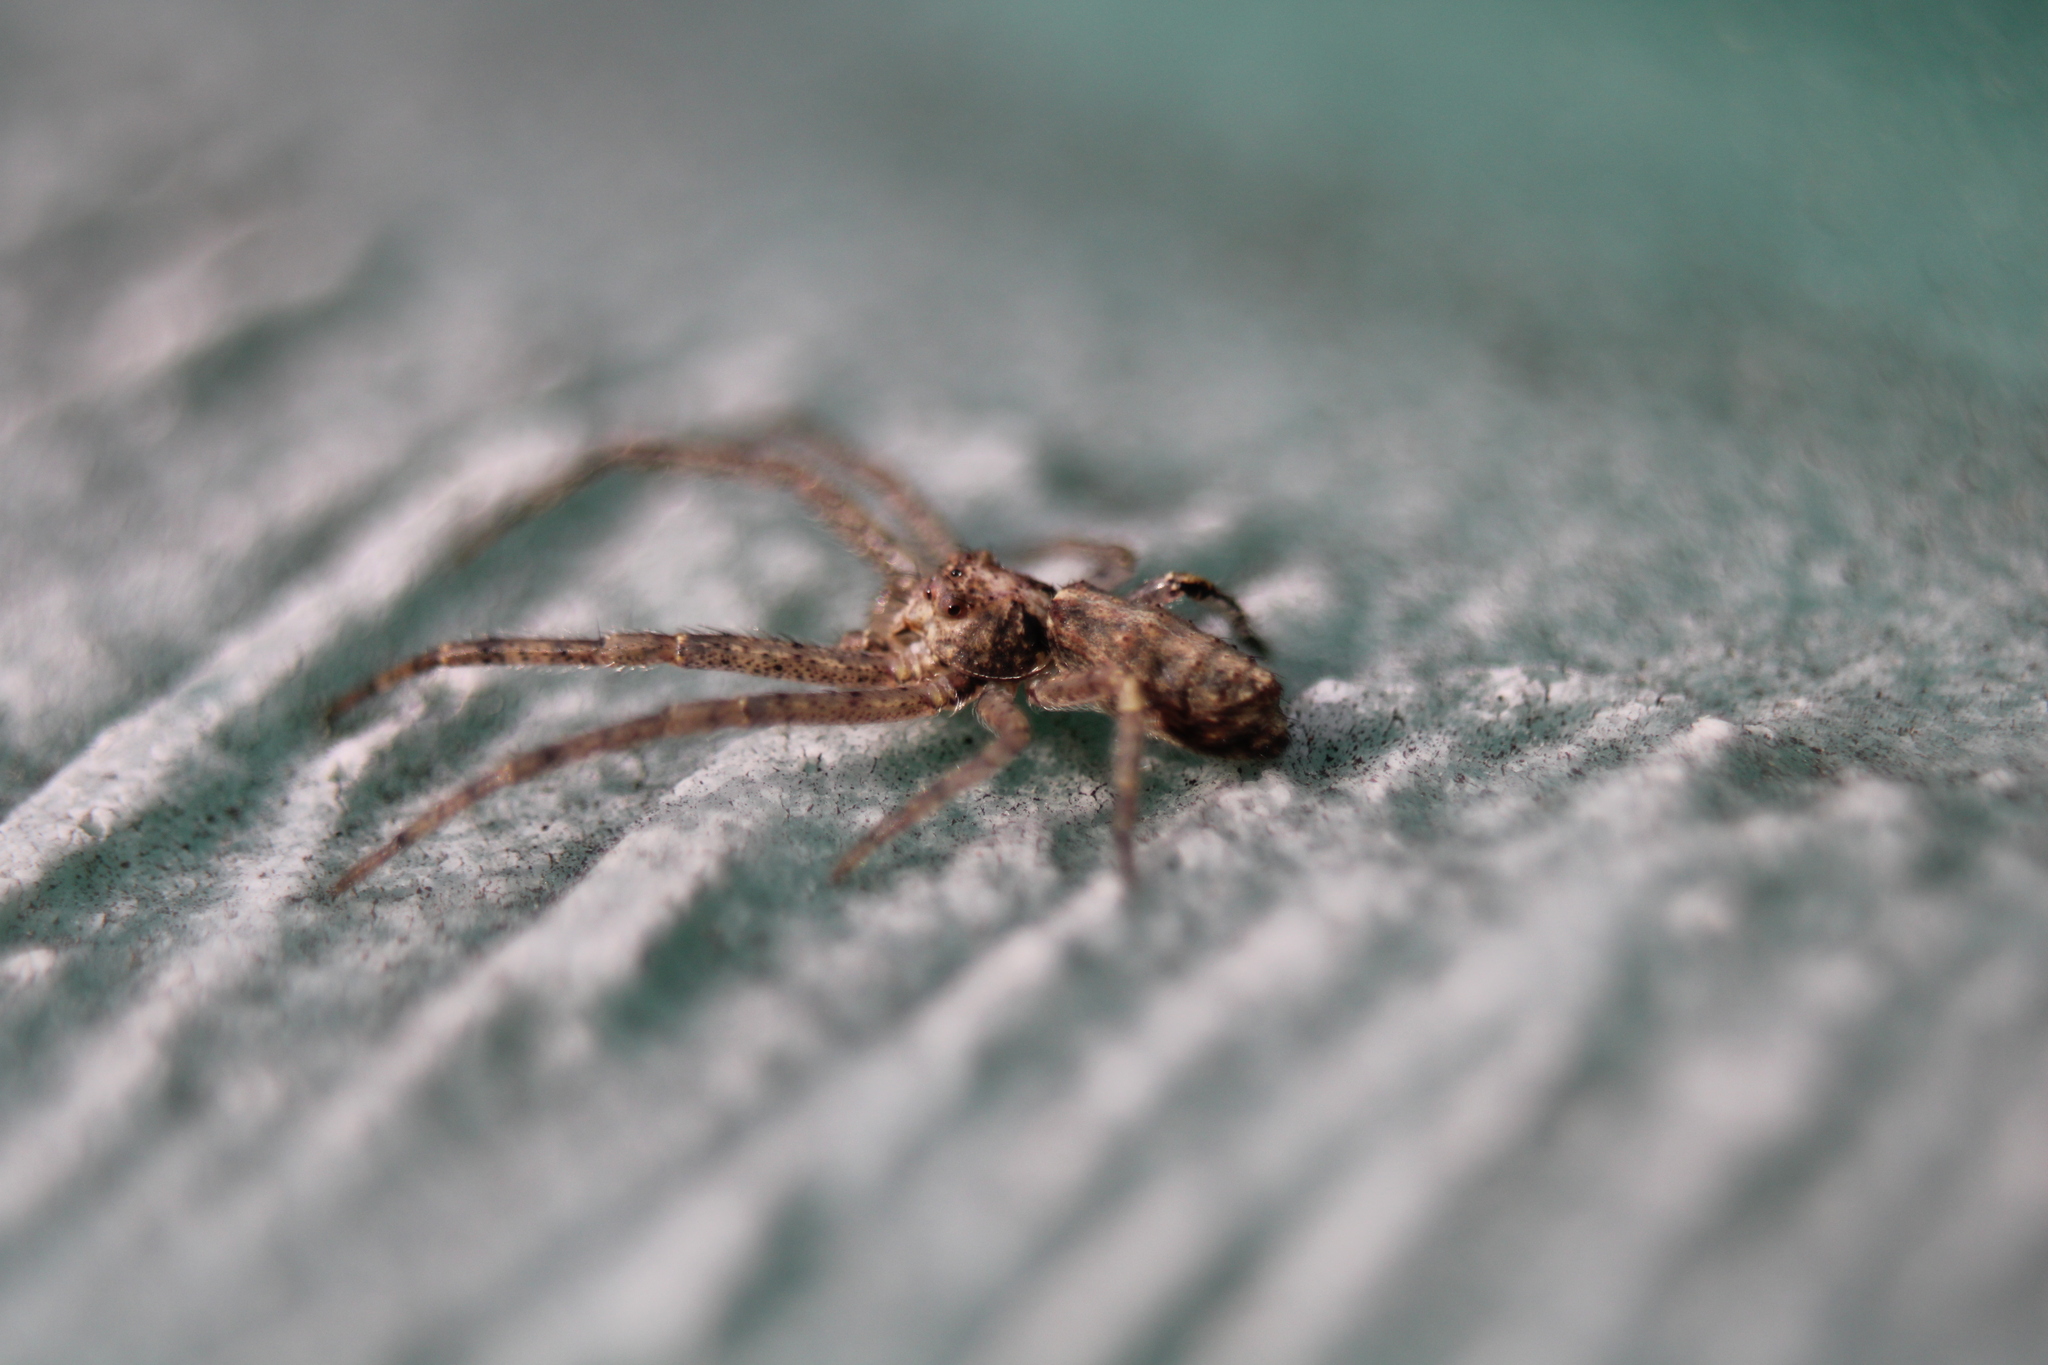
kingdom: Animalia
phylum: Arthropoda
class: Arachnida
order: Araneae
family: Thomisidae
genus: Tmarus
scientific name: Tmarus angulatus
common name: Tuberculated crab spider
